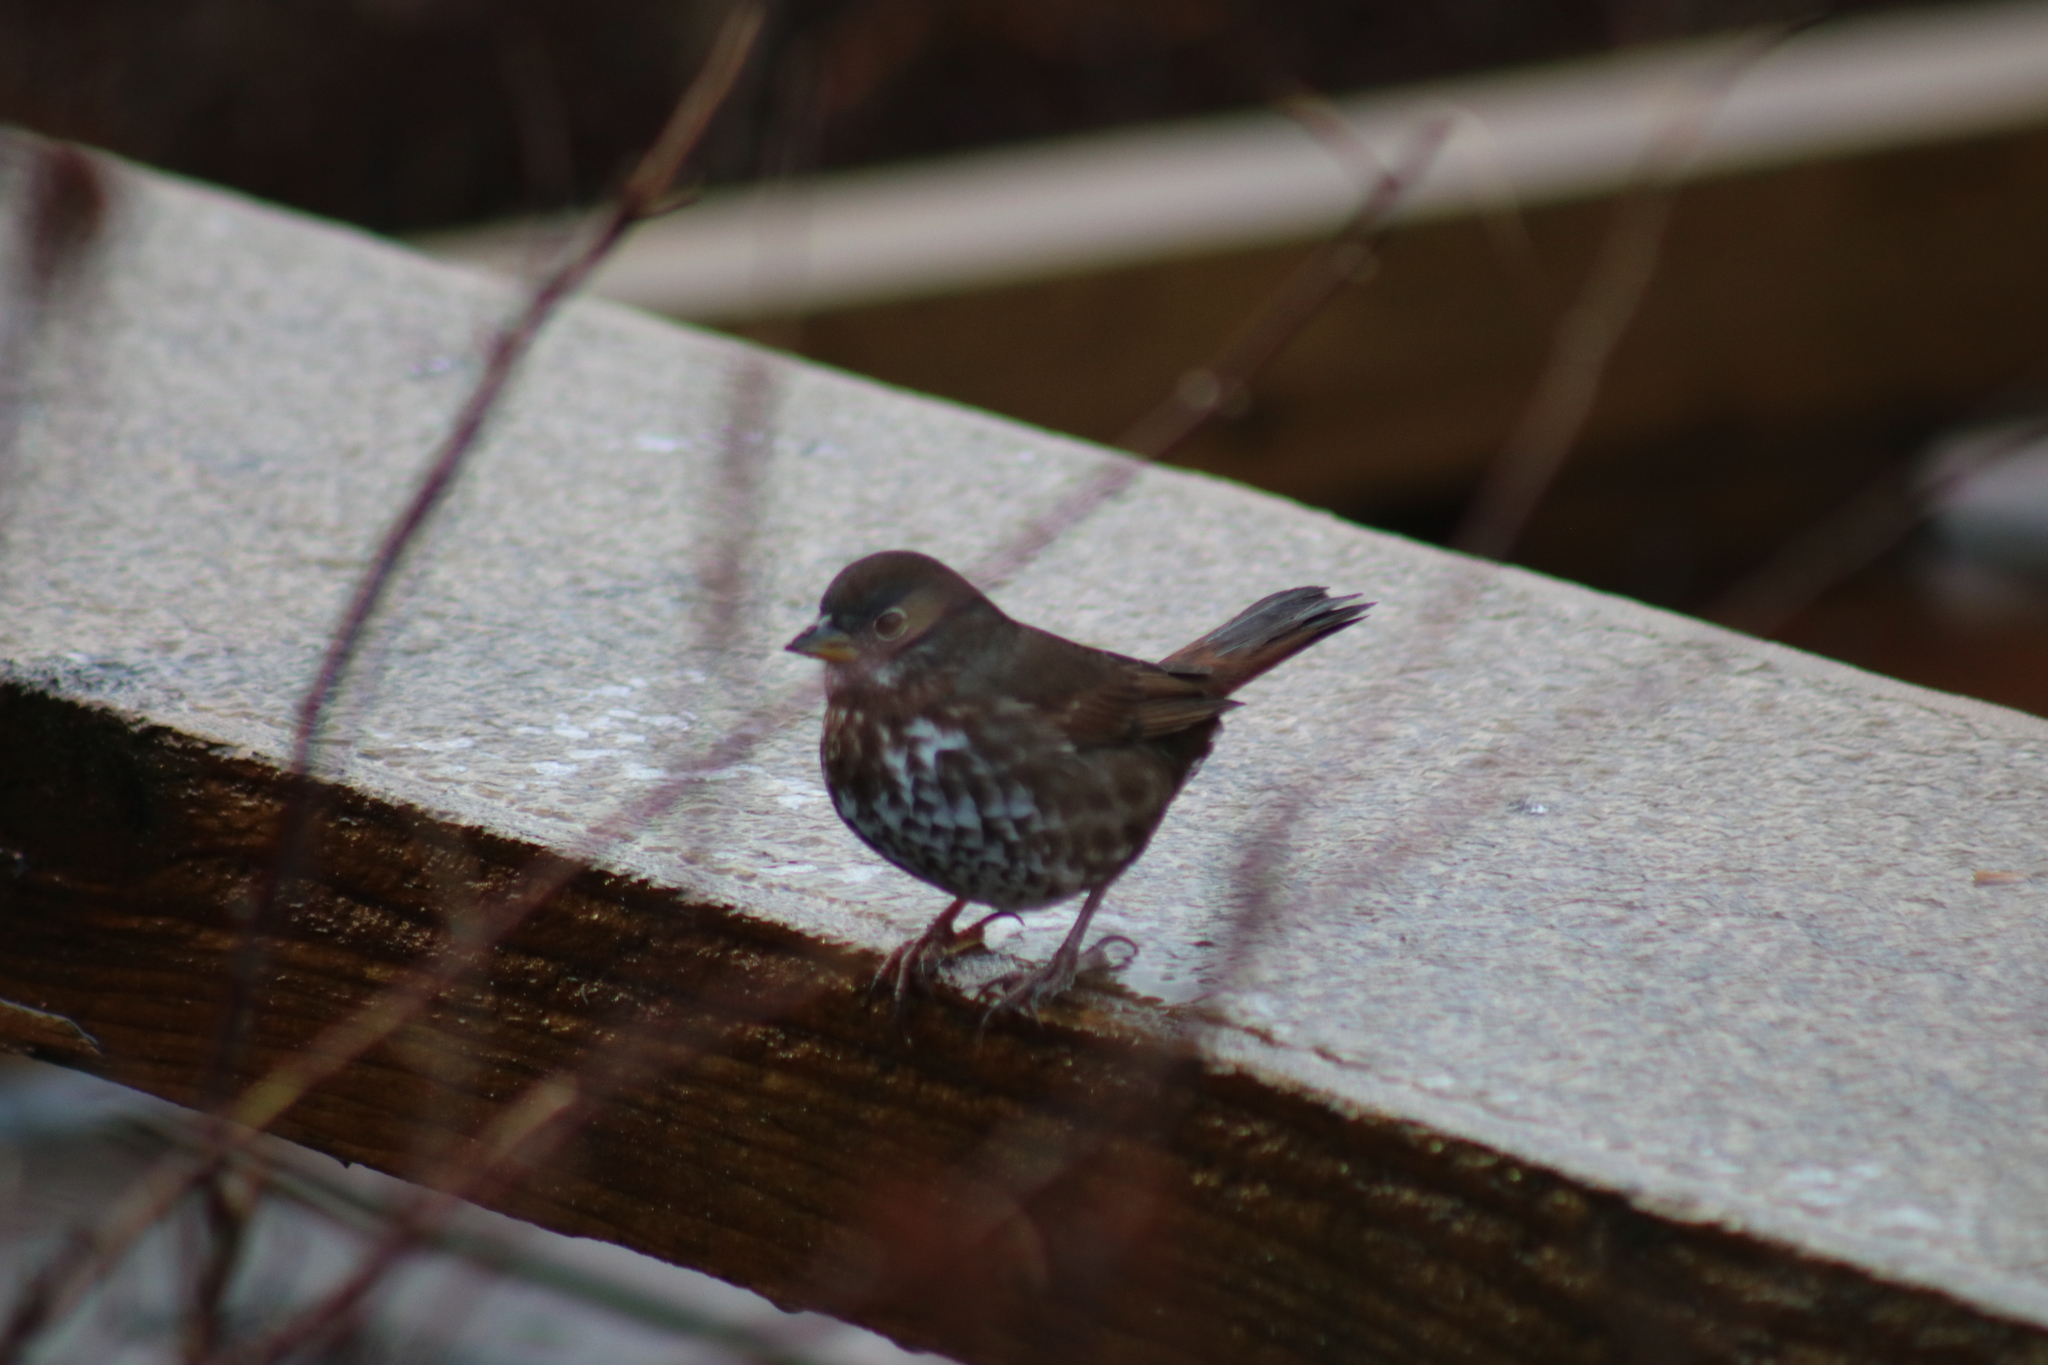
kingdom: Animalia
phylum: Chordata
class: Aves
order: Passeriformes
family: Passerellidae
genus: Passerella
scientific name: Passerella iliaca
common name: Fox sparrow
